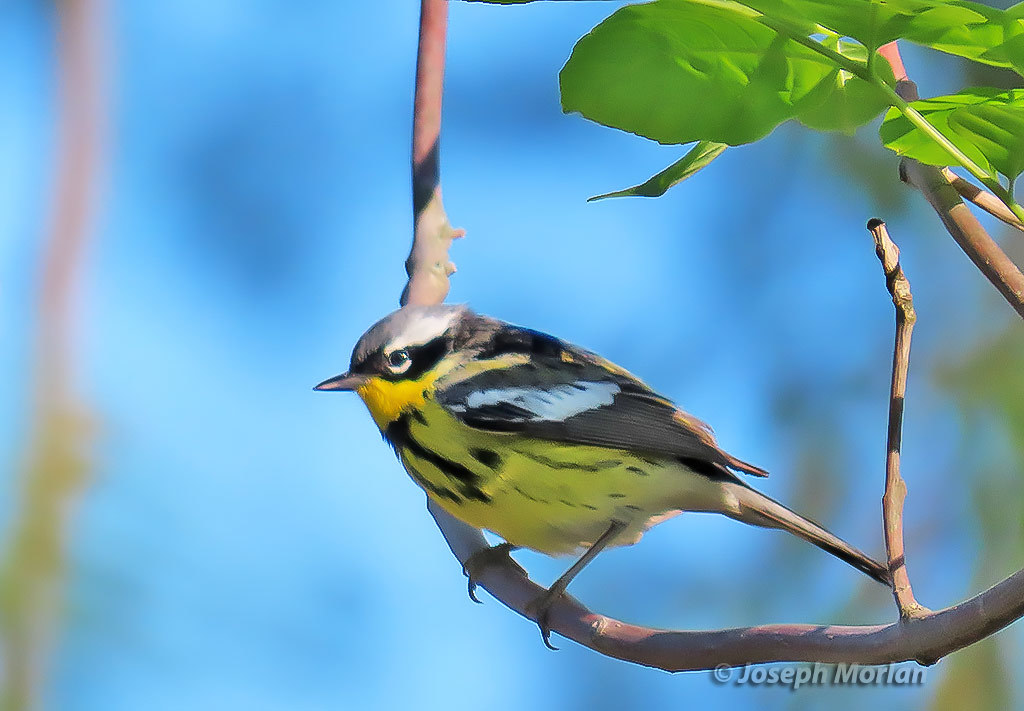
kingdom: Animalia
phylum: Chordata
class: Aves
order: Passeriformes
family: Parulidae
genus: Setophaga
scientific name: Setophaga magnolia
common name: Magnolia warbler
